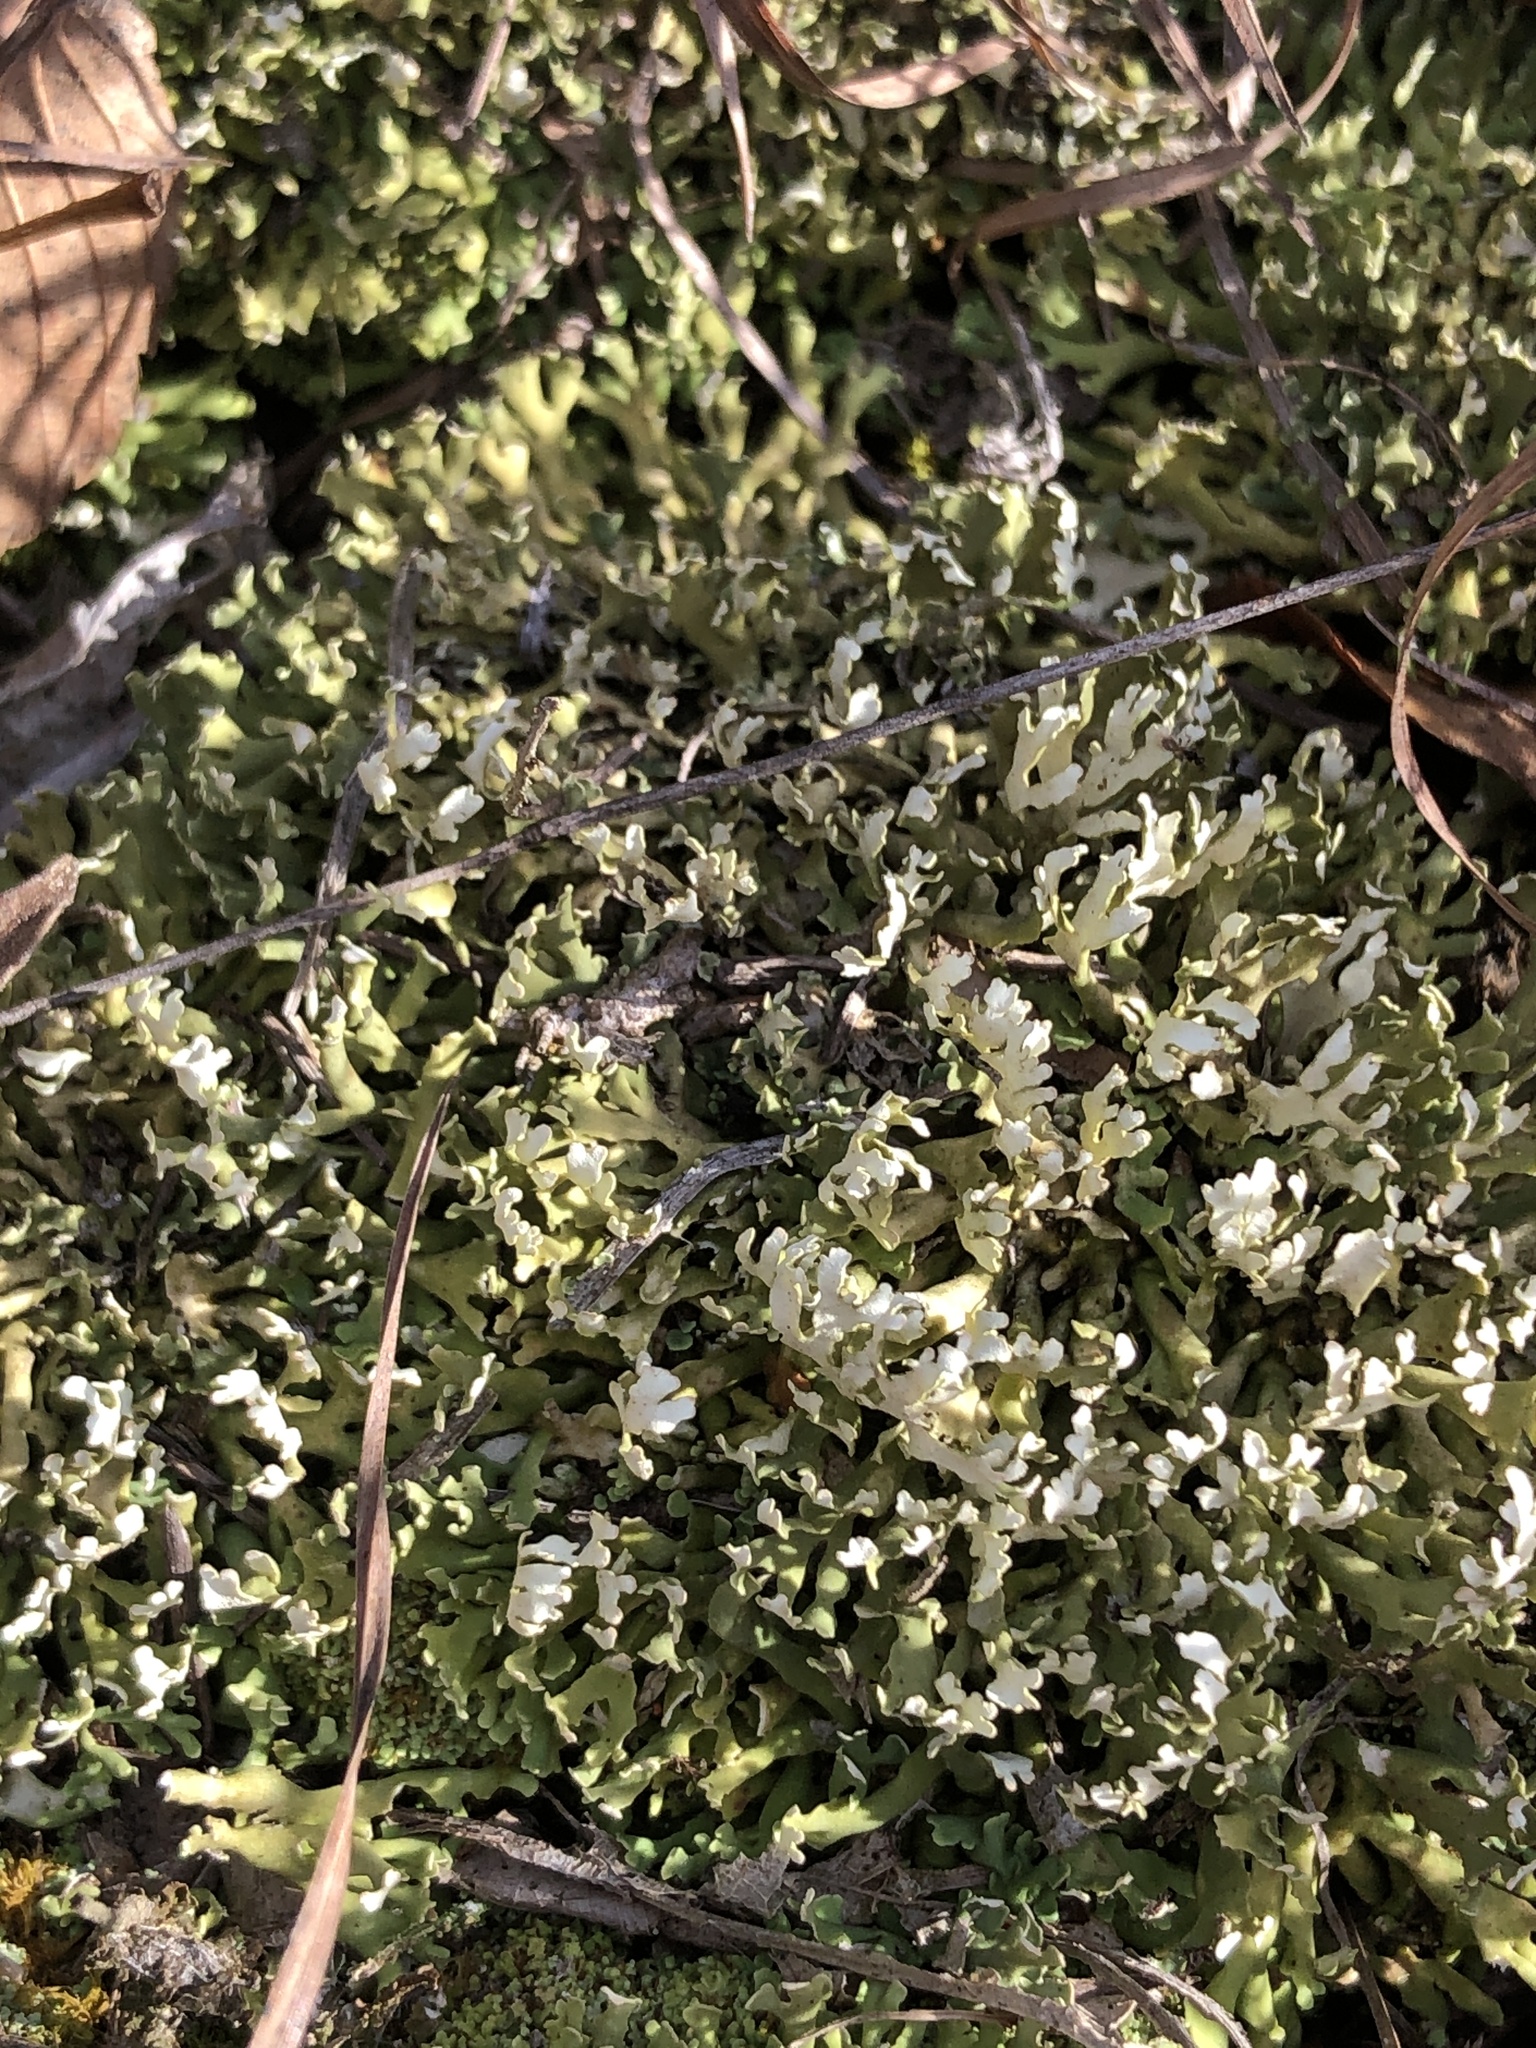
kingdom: Fungi
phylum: Ascomycota
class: Lecanoromycetes
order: Lecanorales
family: Cladoniaceae
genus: Cladonia
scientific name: Cladonia apodocarpa
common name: Stalkless cladonia
